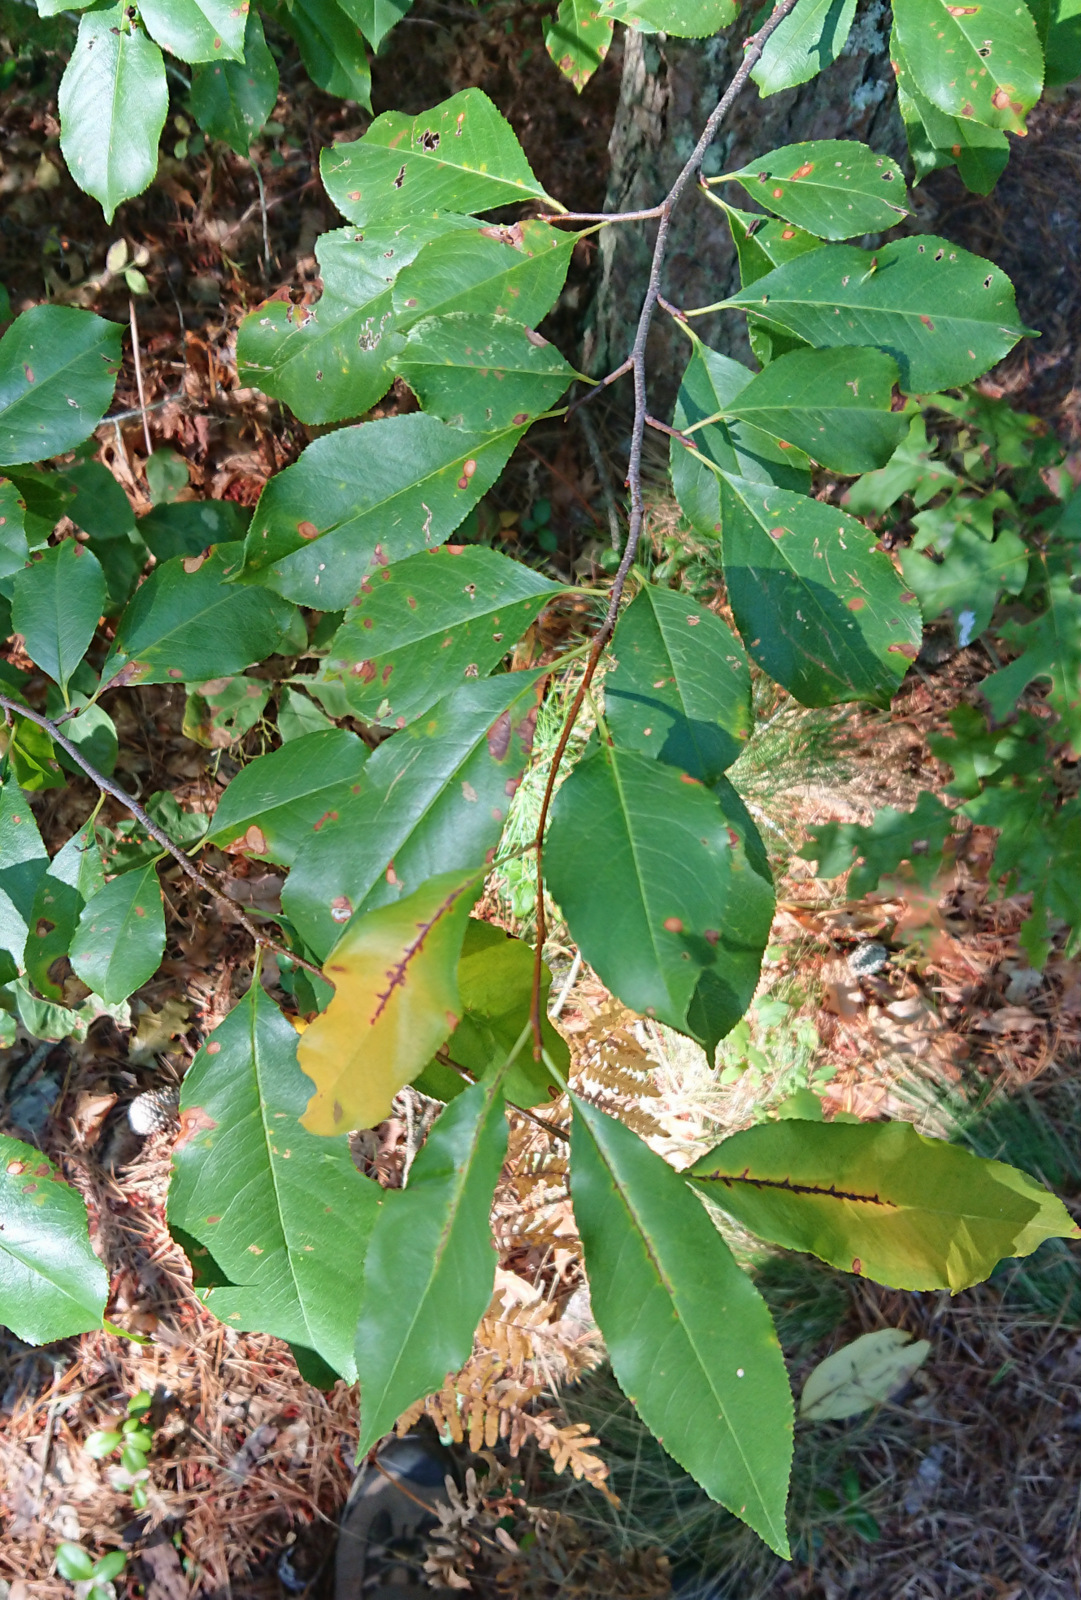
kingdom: Plantae
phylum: Tracheophyta
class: Magnoliopsida
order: Rosales
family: Rosaceae
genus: Prunus
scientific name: Prunus serotina
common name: Black cherry
